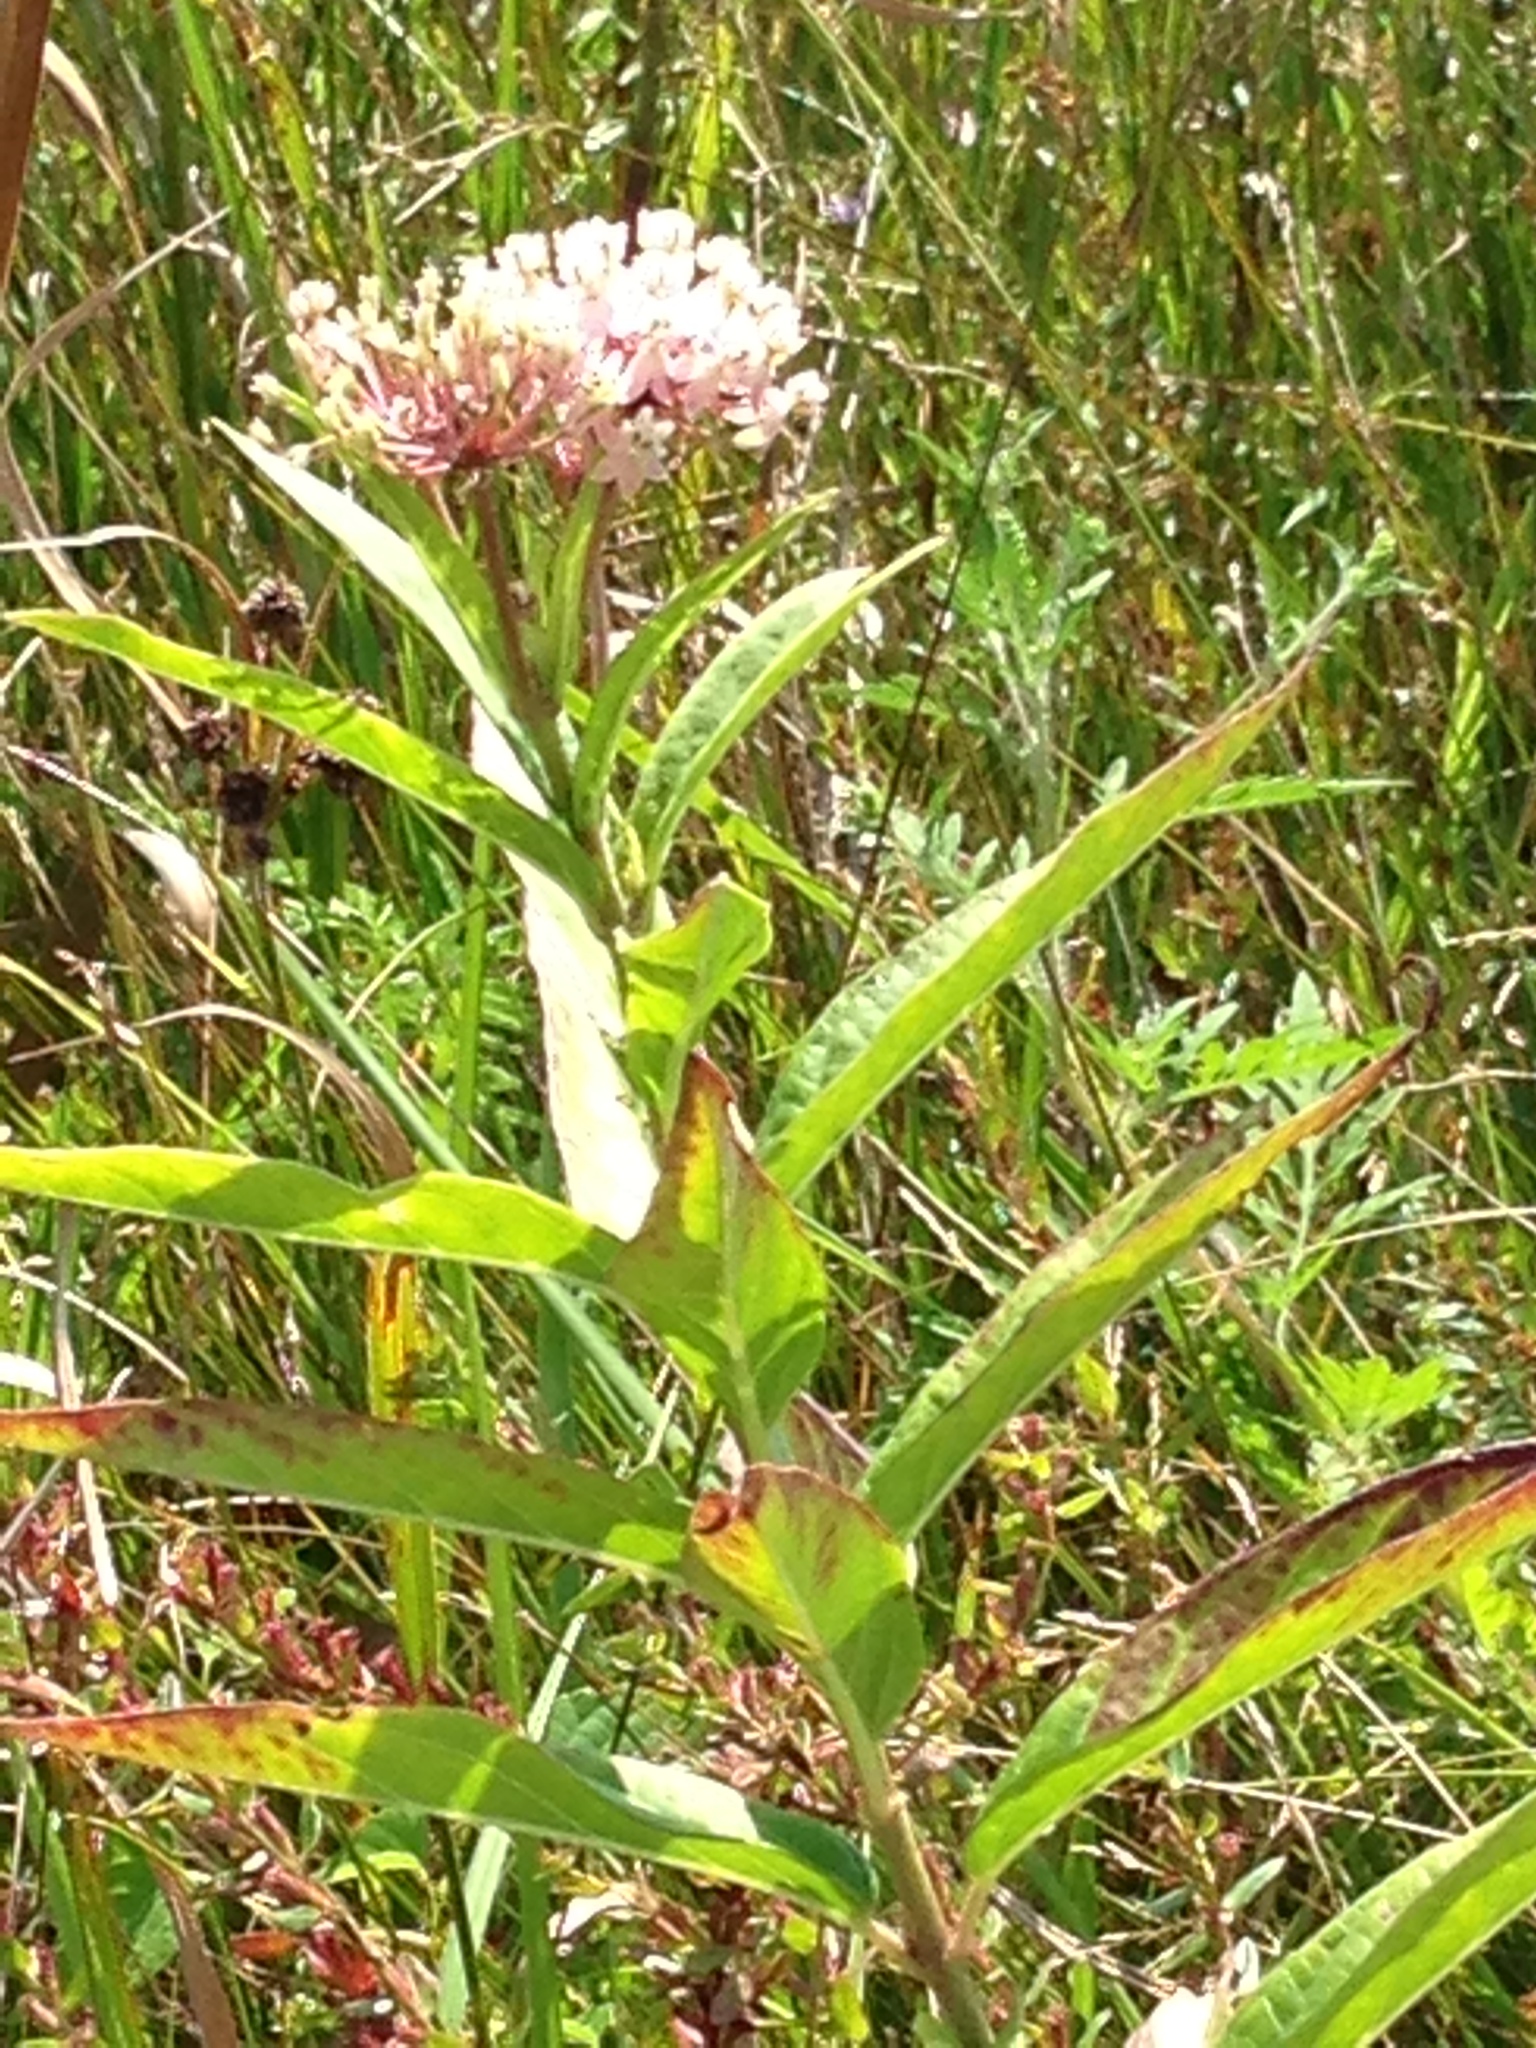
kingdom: Plantae
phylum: Tracheophyta
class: Magnoliopsida
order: Gentianales
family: Apocynaceae
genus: Asclepias
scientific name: Asclepias incarnata
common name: Swamp milkweed
